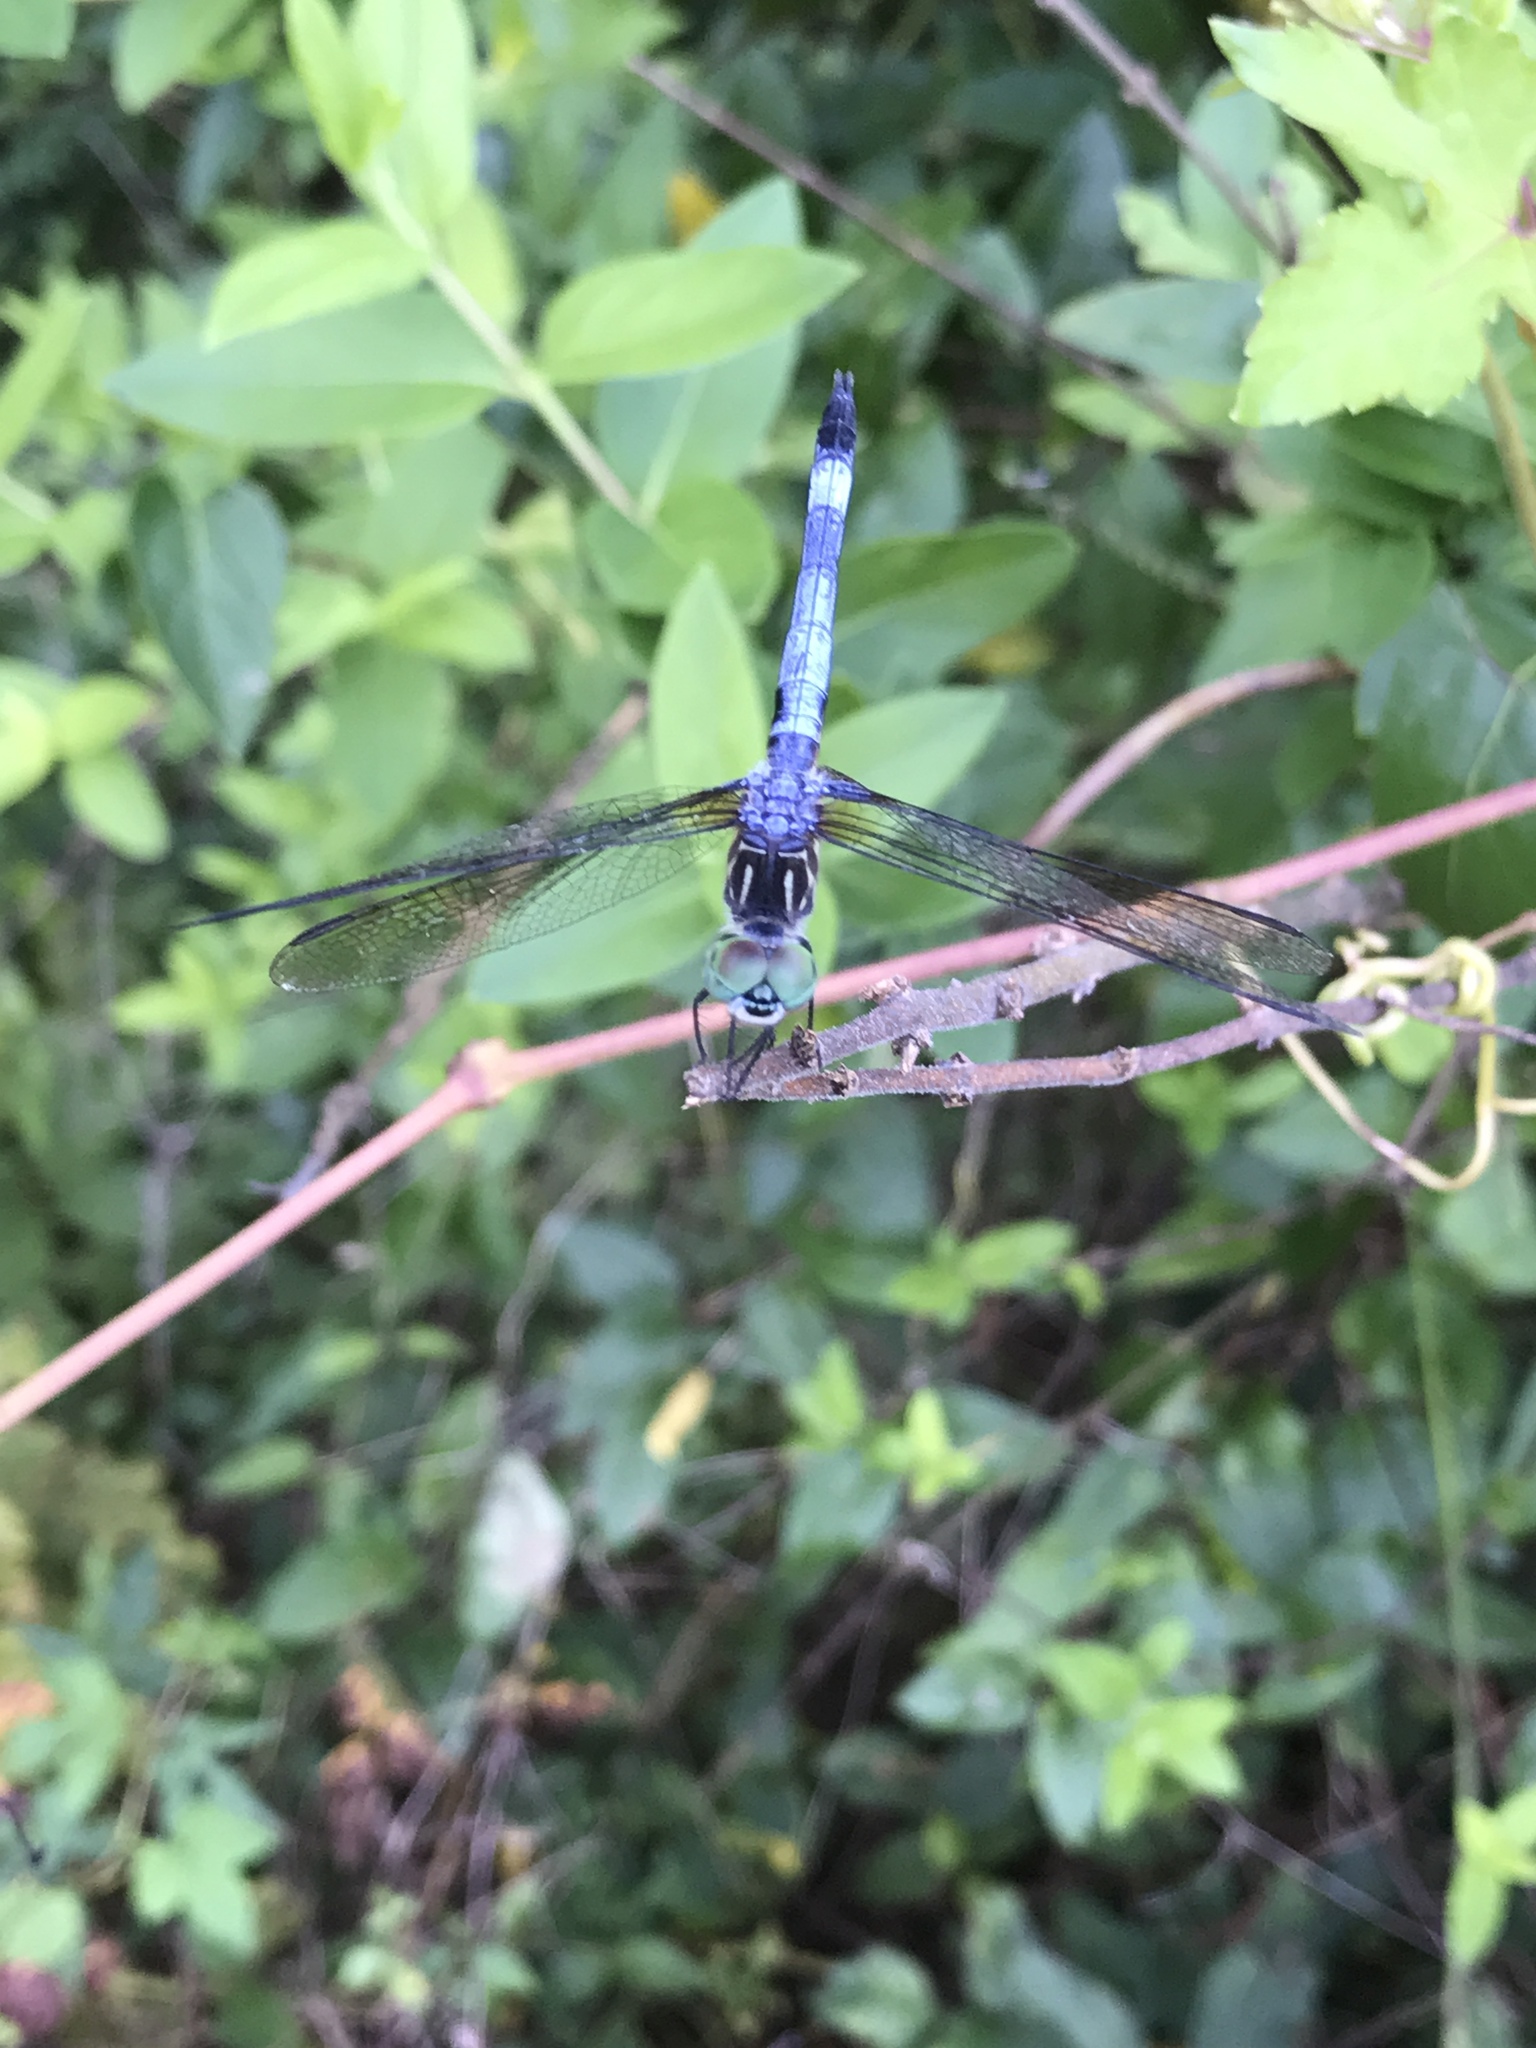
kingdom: Animalia
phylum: Arthropoda
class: Insecta
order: Odonata
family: Libellulidae
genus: Pachydiplax
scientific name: Pachydiplax longipennis
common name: Blue dasher
